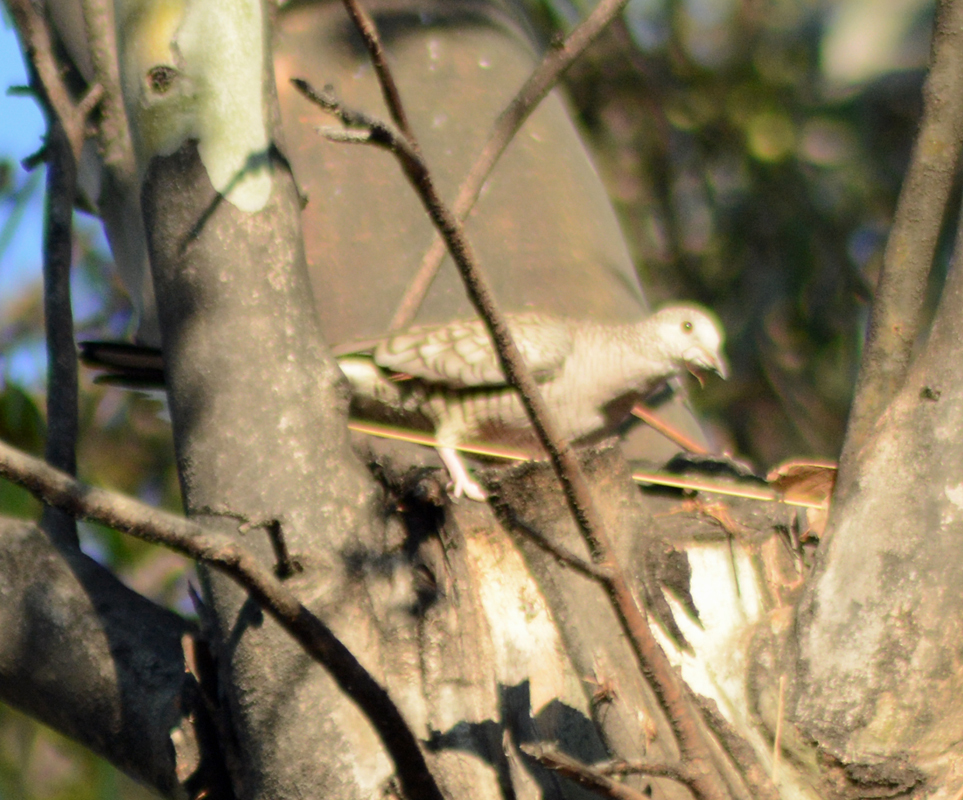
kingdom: Animalia
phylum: Chordata
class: Aves
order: Columbiformes
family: Columbidae
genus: Columbina
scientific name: Columbina inca
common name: Inca dove
